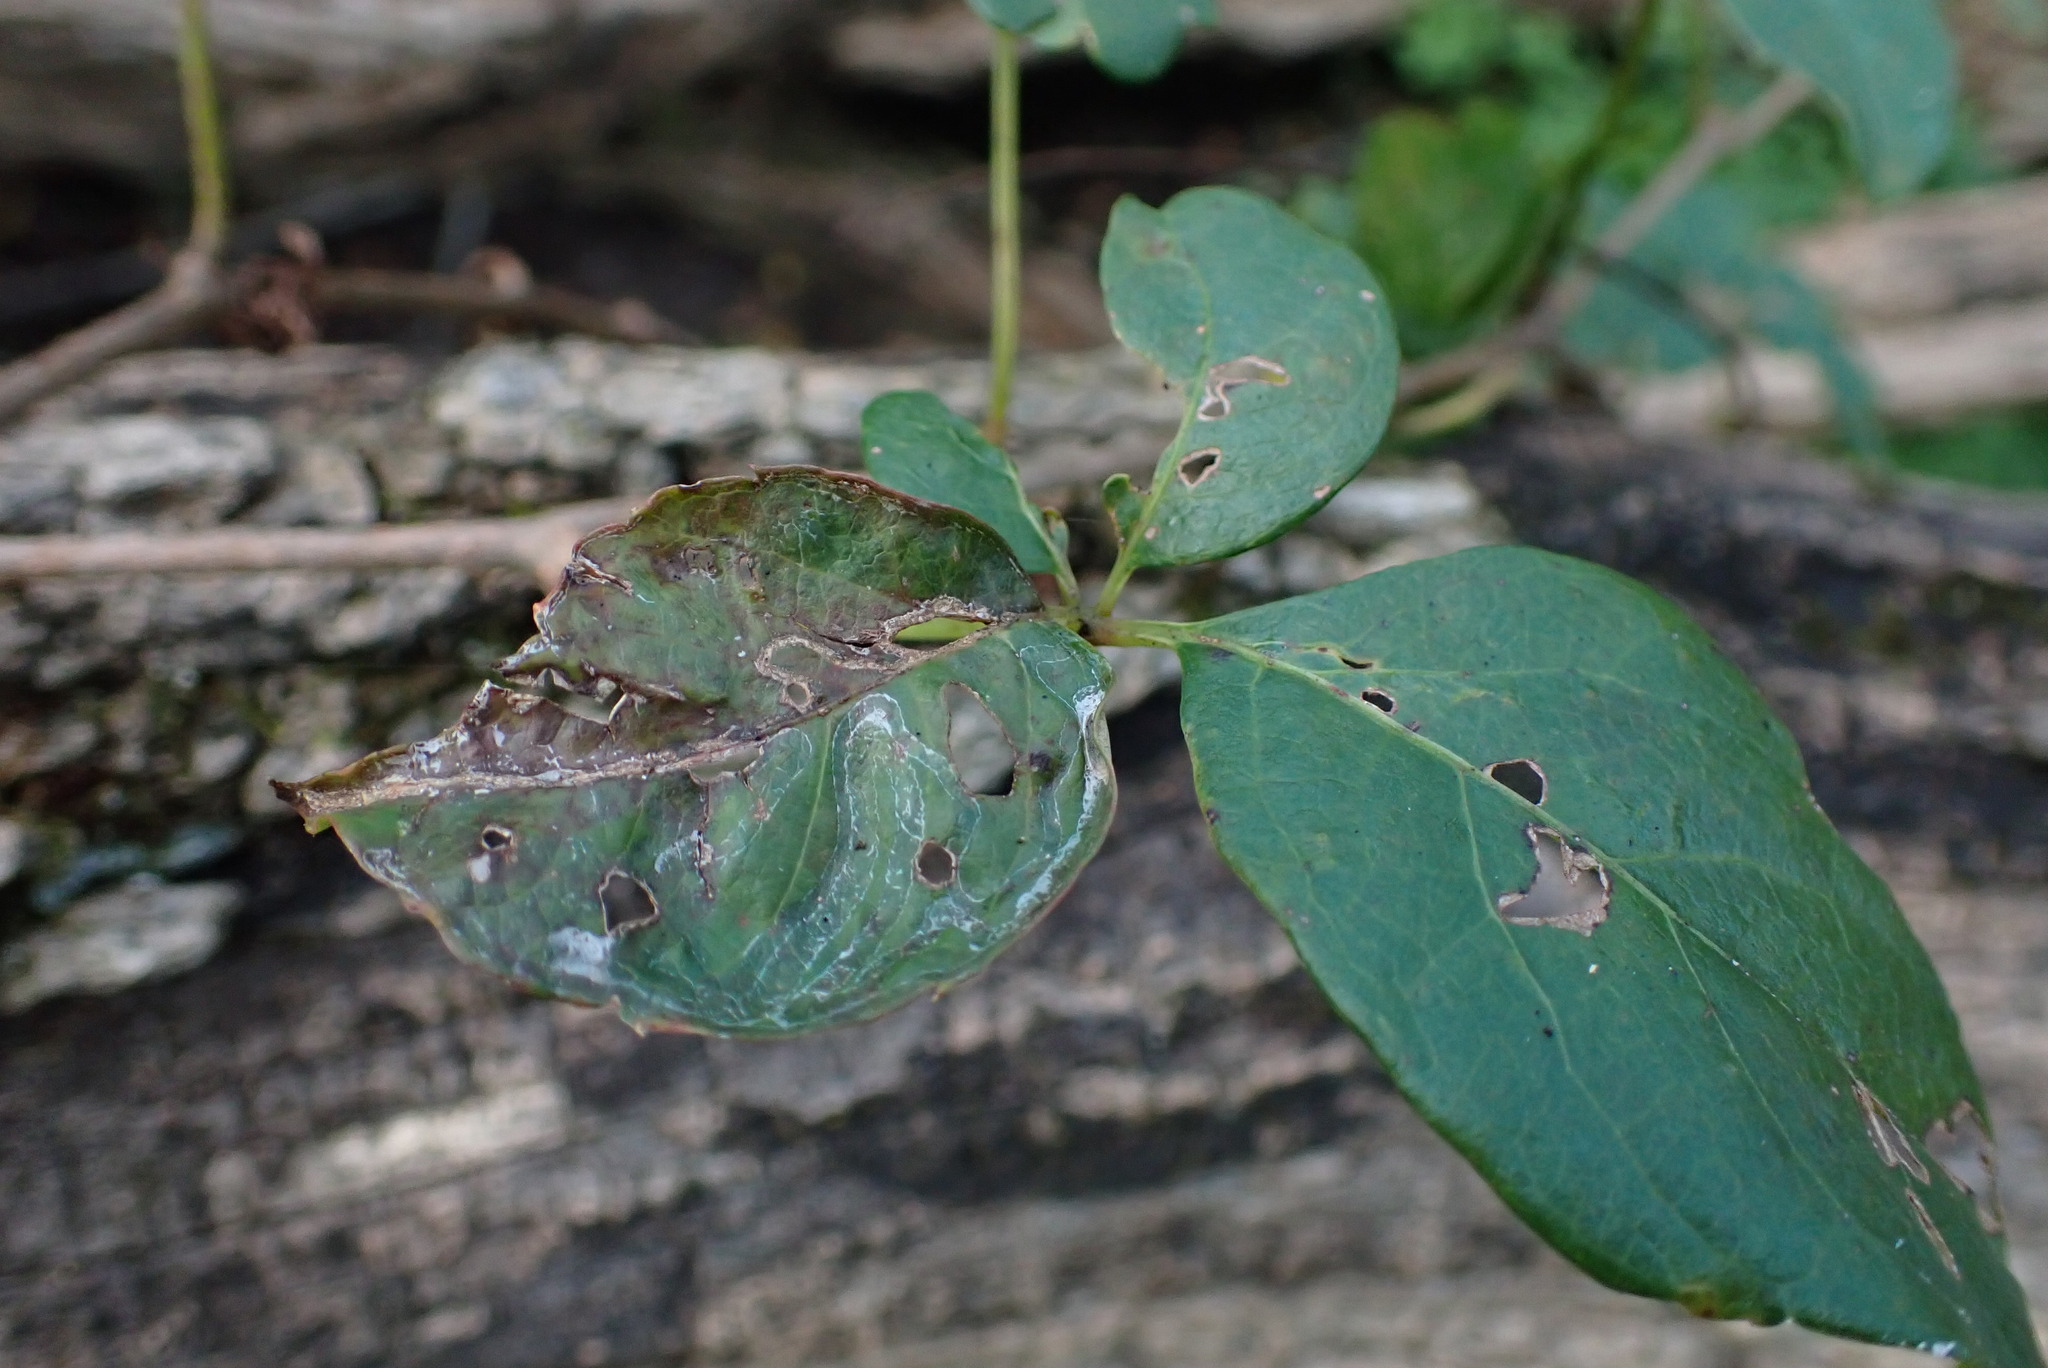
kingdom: Animalia
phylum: Arthropoda
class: Insecta
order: Lepidoptera
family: Gracillariidae
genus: Phyllocnistis
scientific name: Phyllocnistis vitegenella
